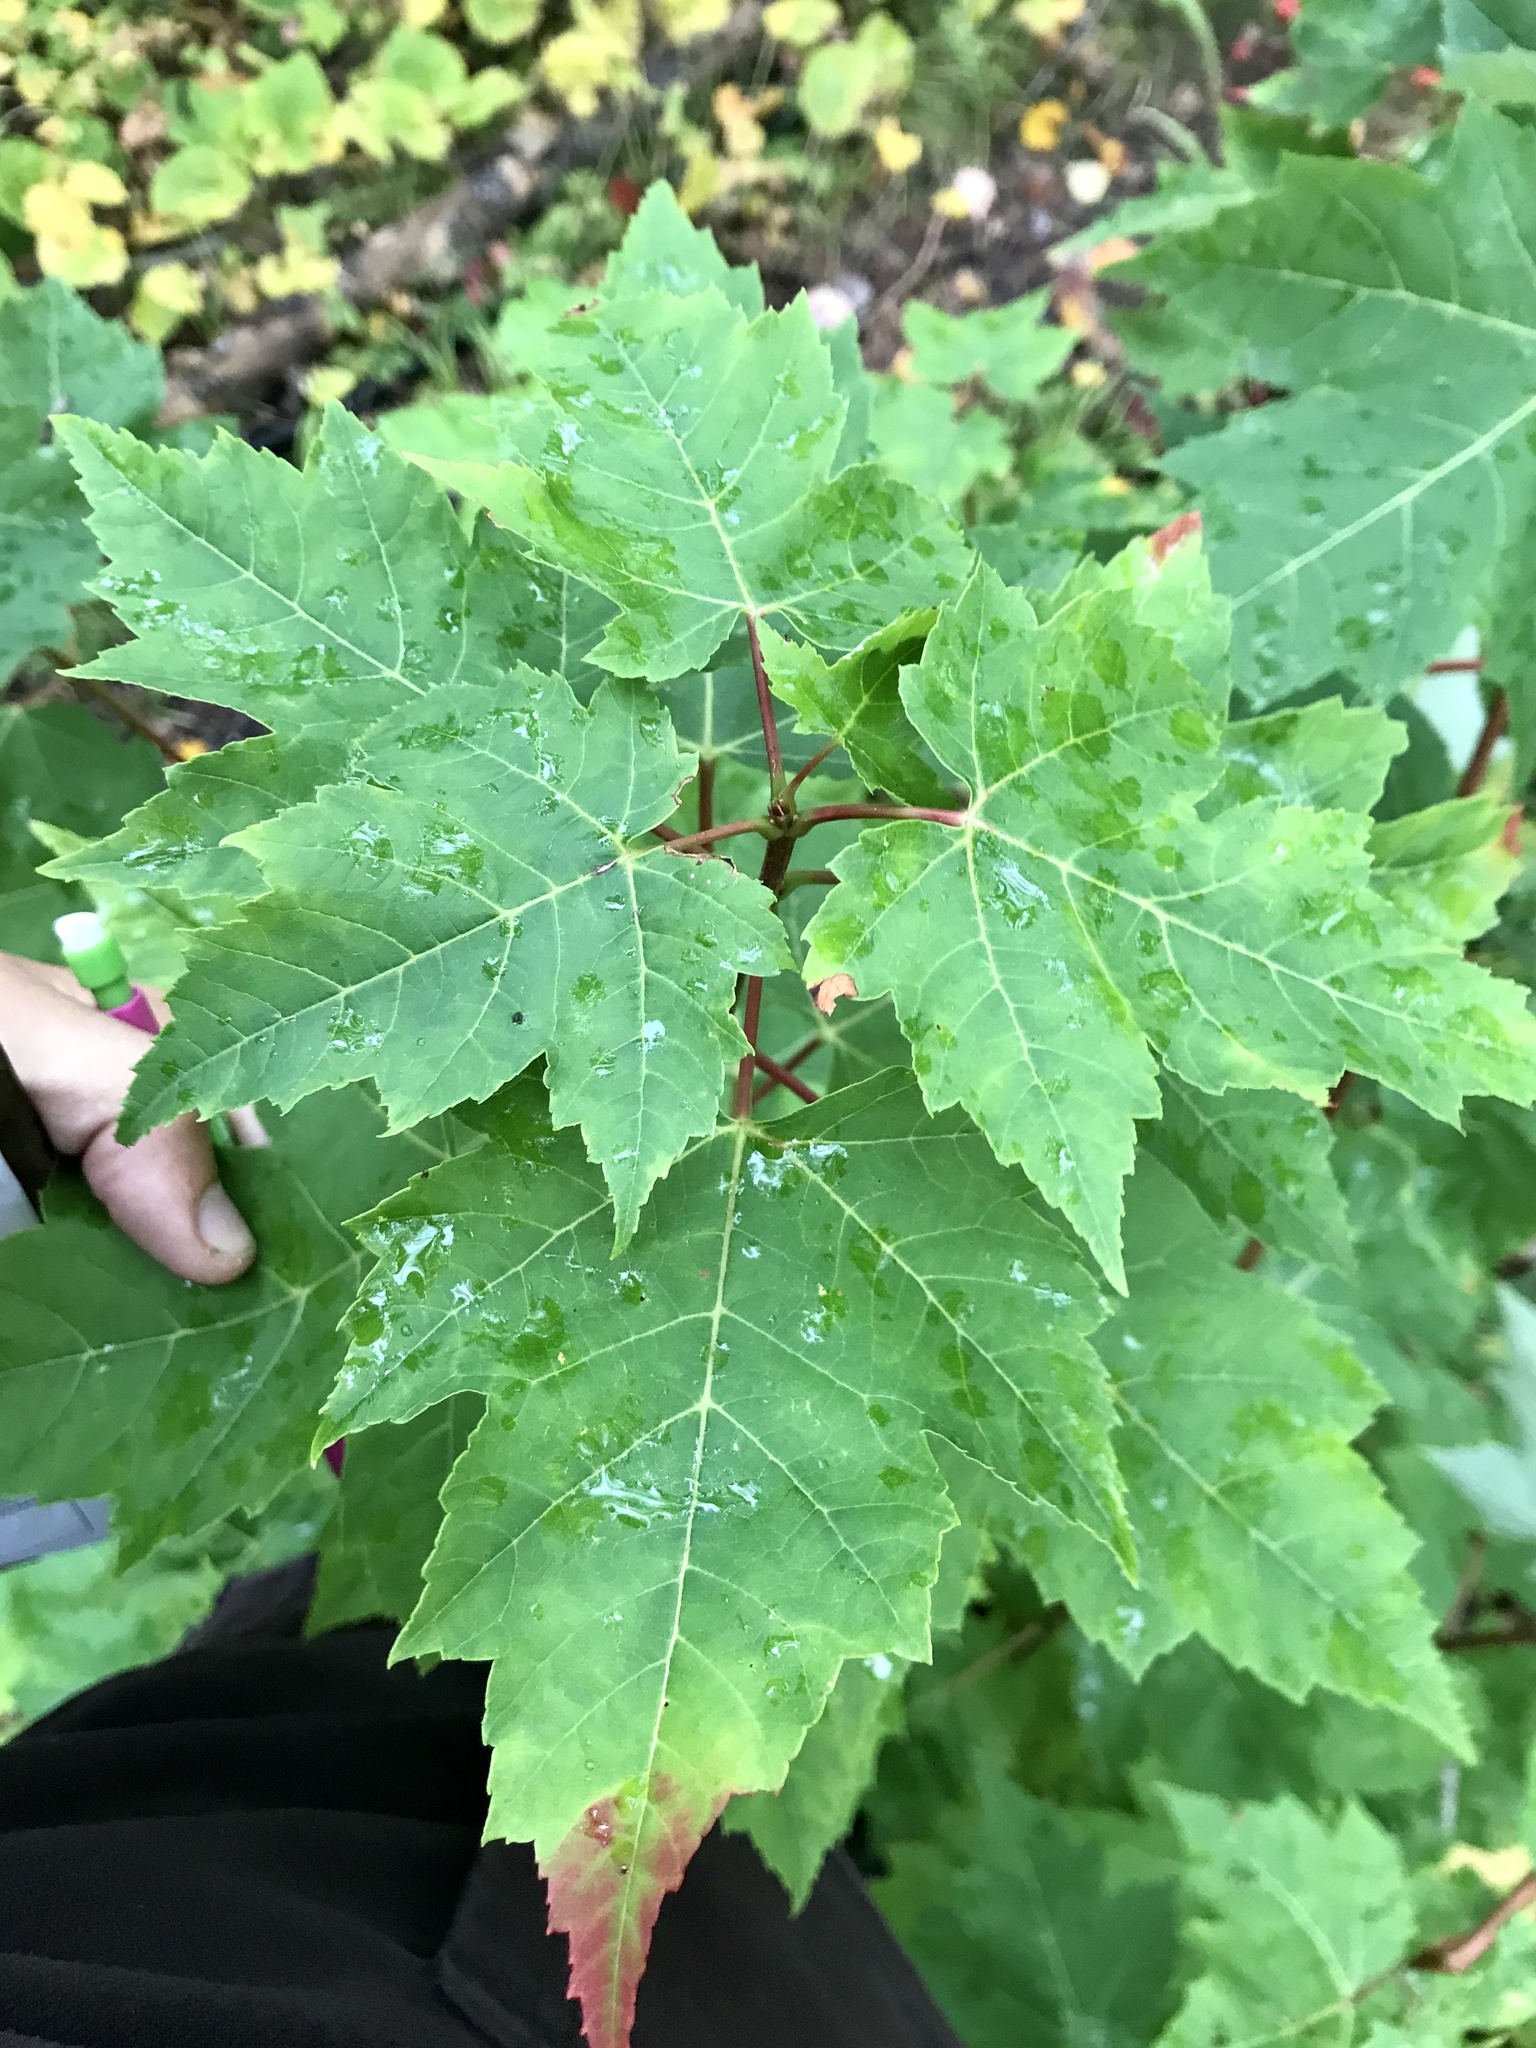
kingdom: Plantae
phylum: Tracheophyta
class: Magnoliopsida
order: Sapindales
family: Sapindaceae
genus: Acer
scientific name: Acer rubrum
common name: Red maple
